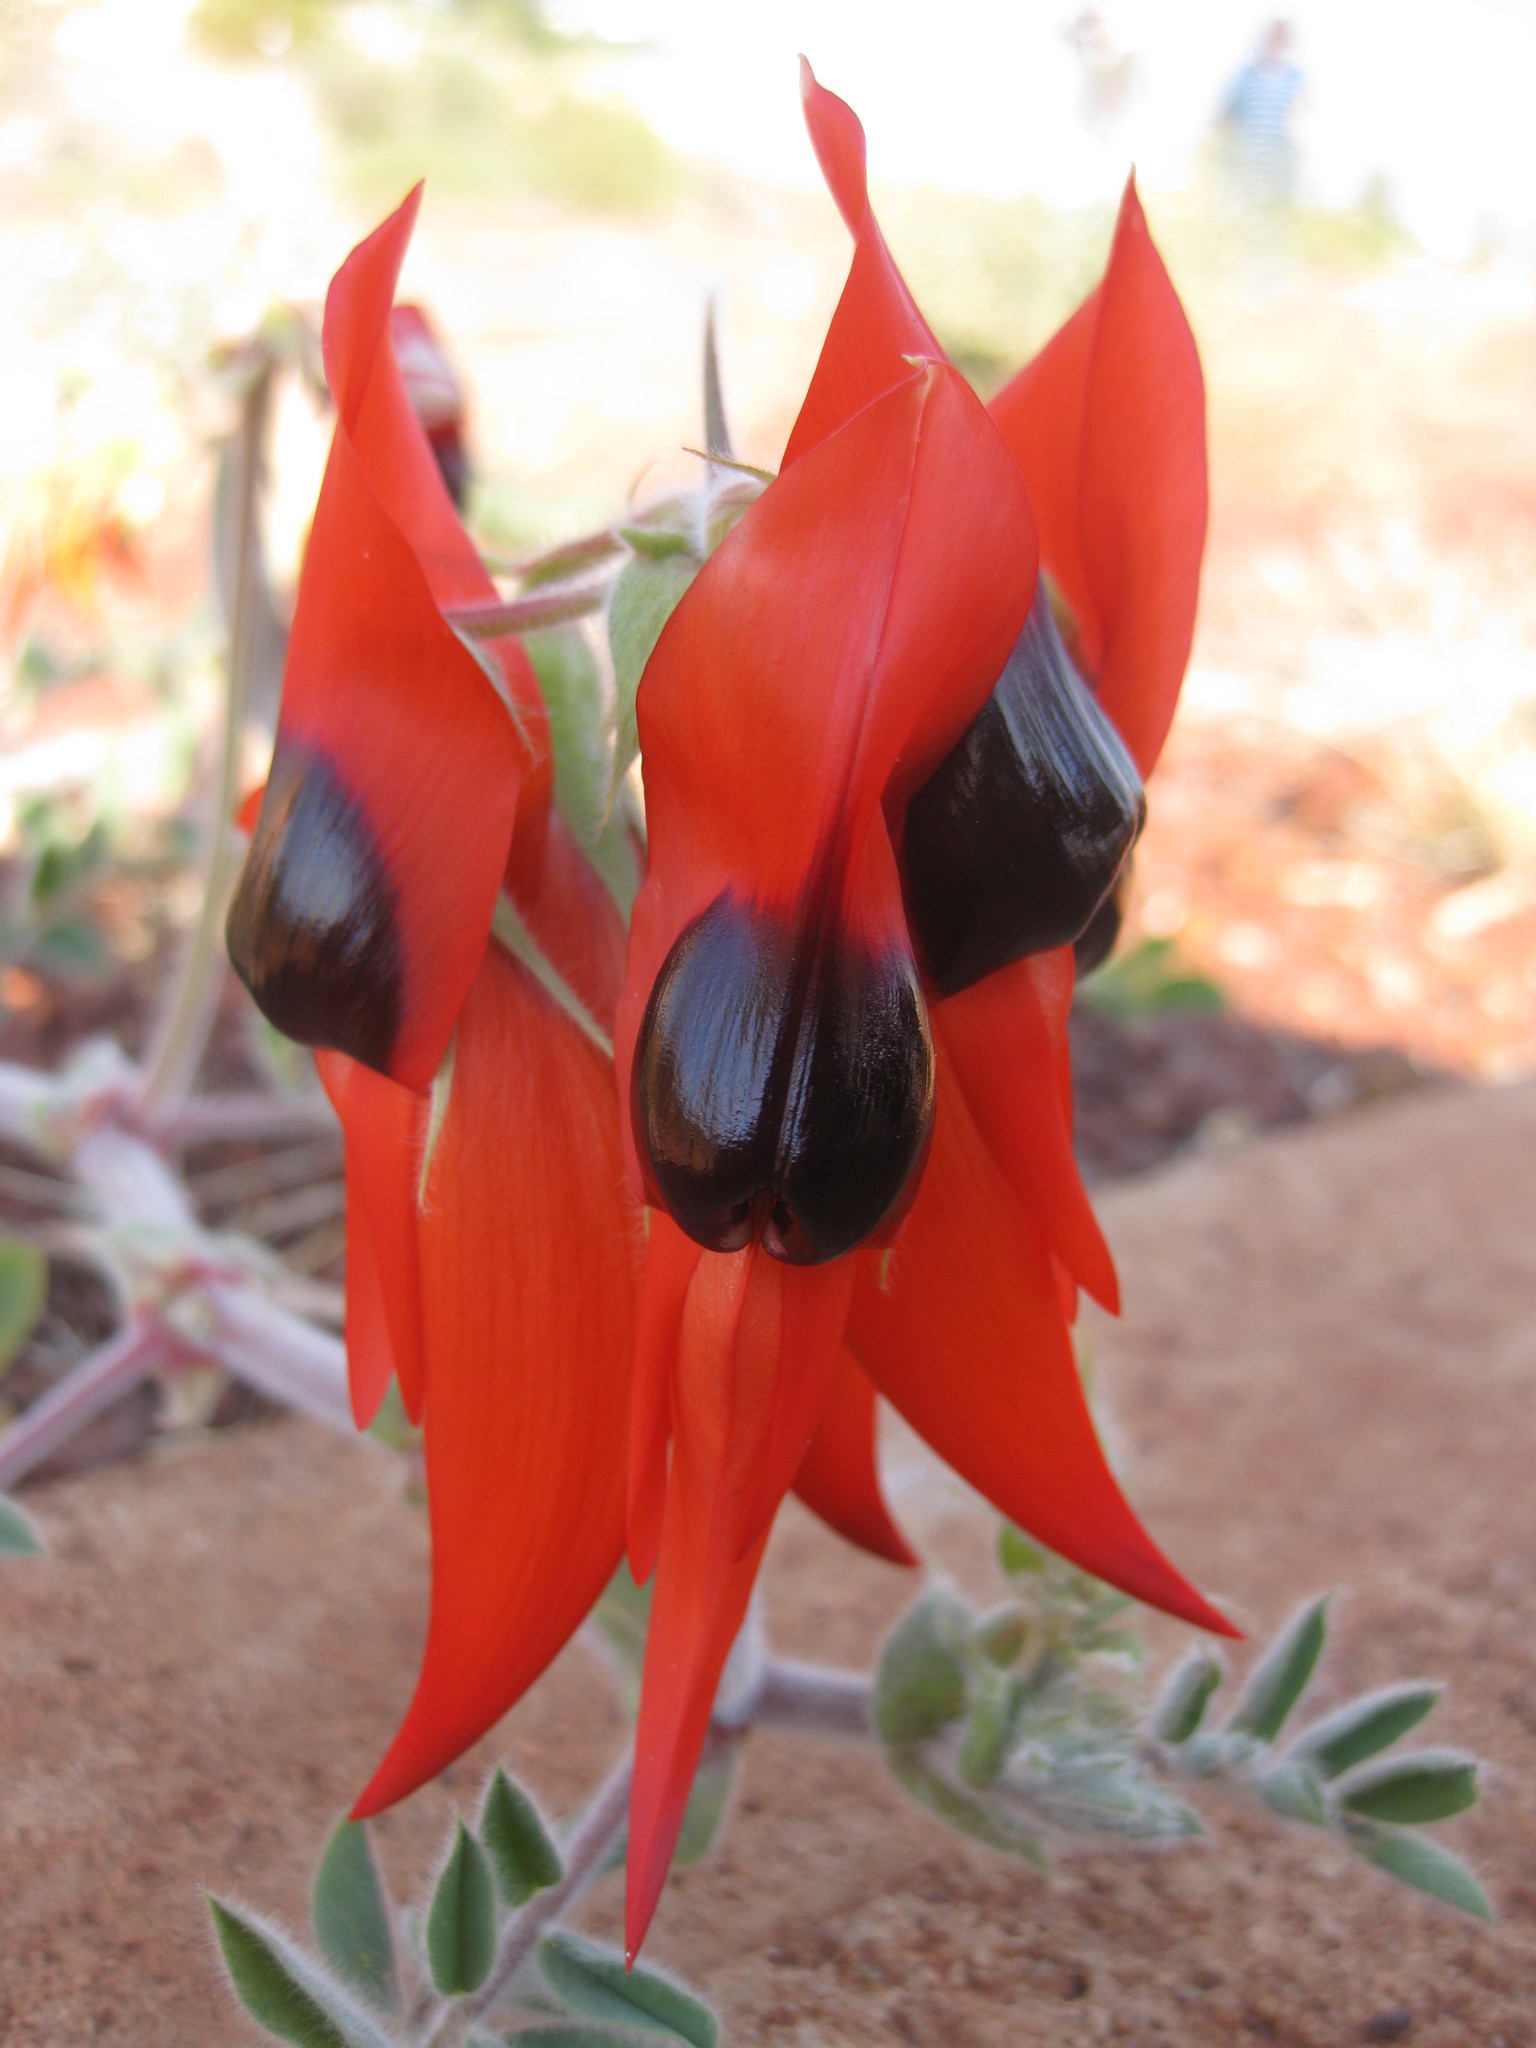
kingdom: Plantae
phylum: Tracheophyta
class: Magnoliopsida
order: Fabales
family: Fabaceae
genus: Swainsona
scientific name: Swainsona formosa
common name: Sturt's desert-pea
